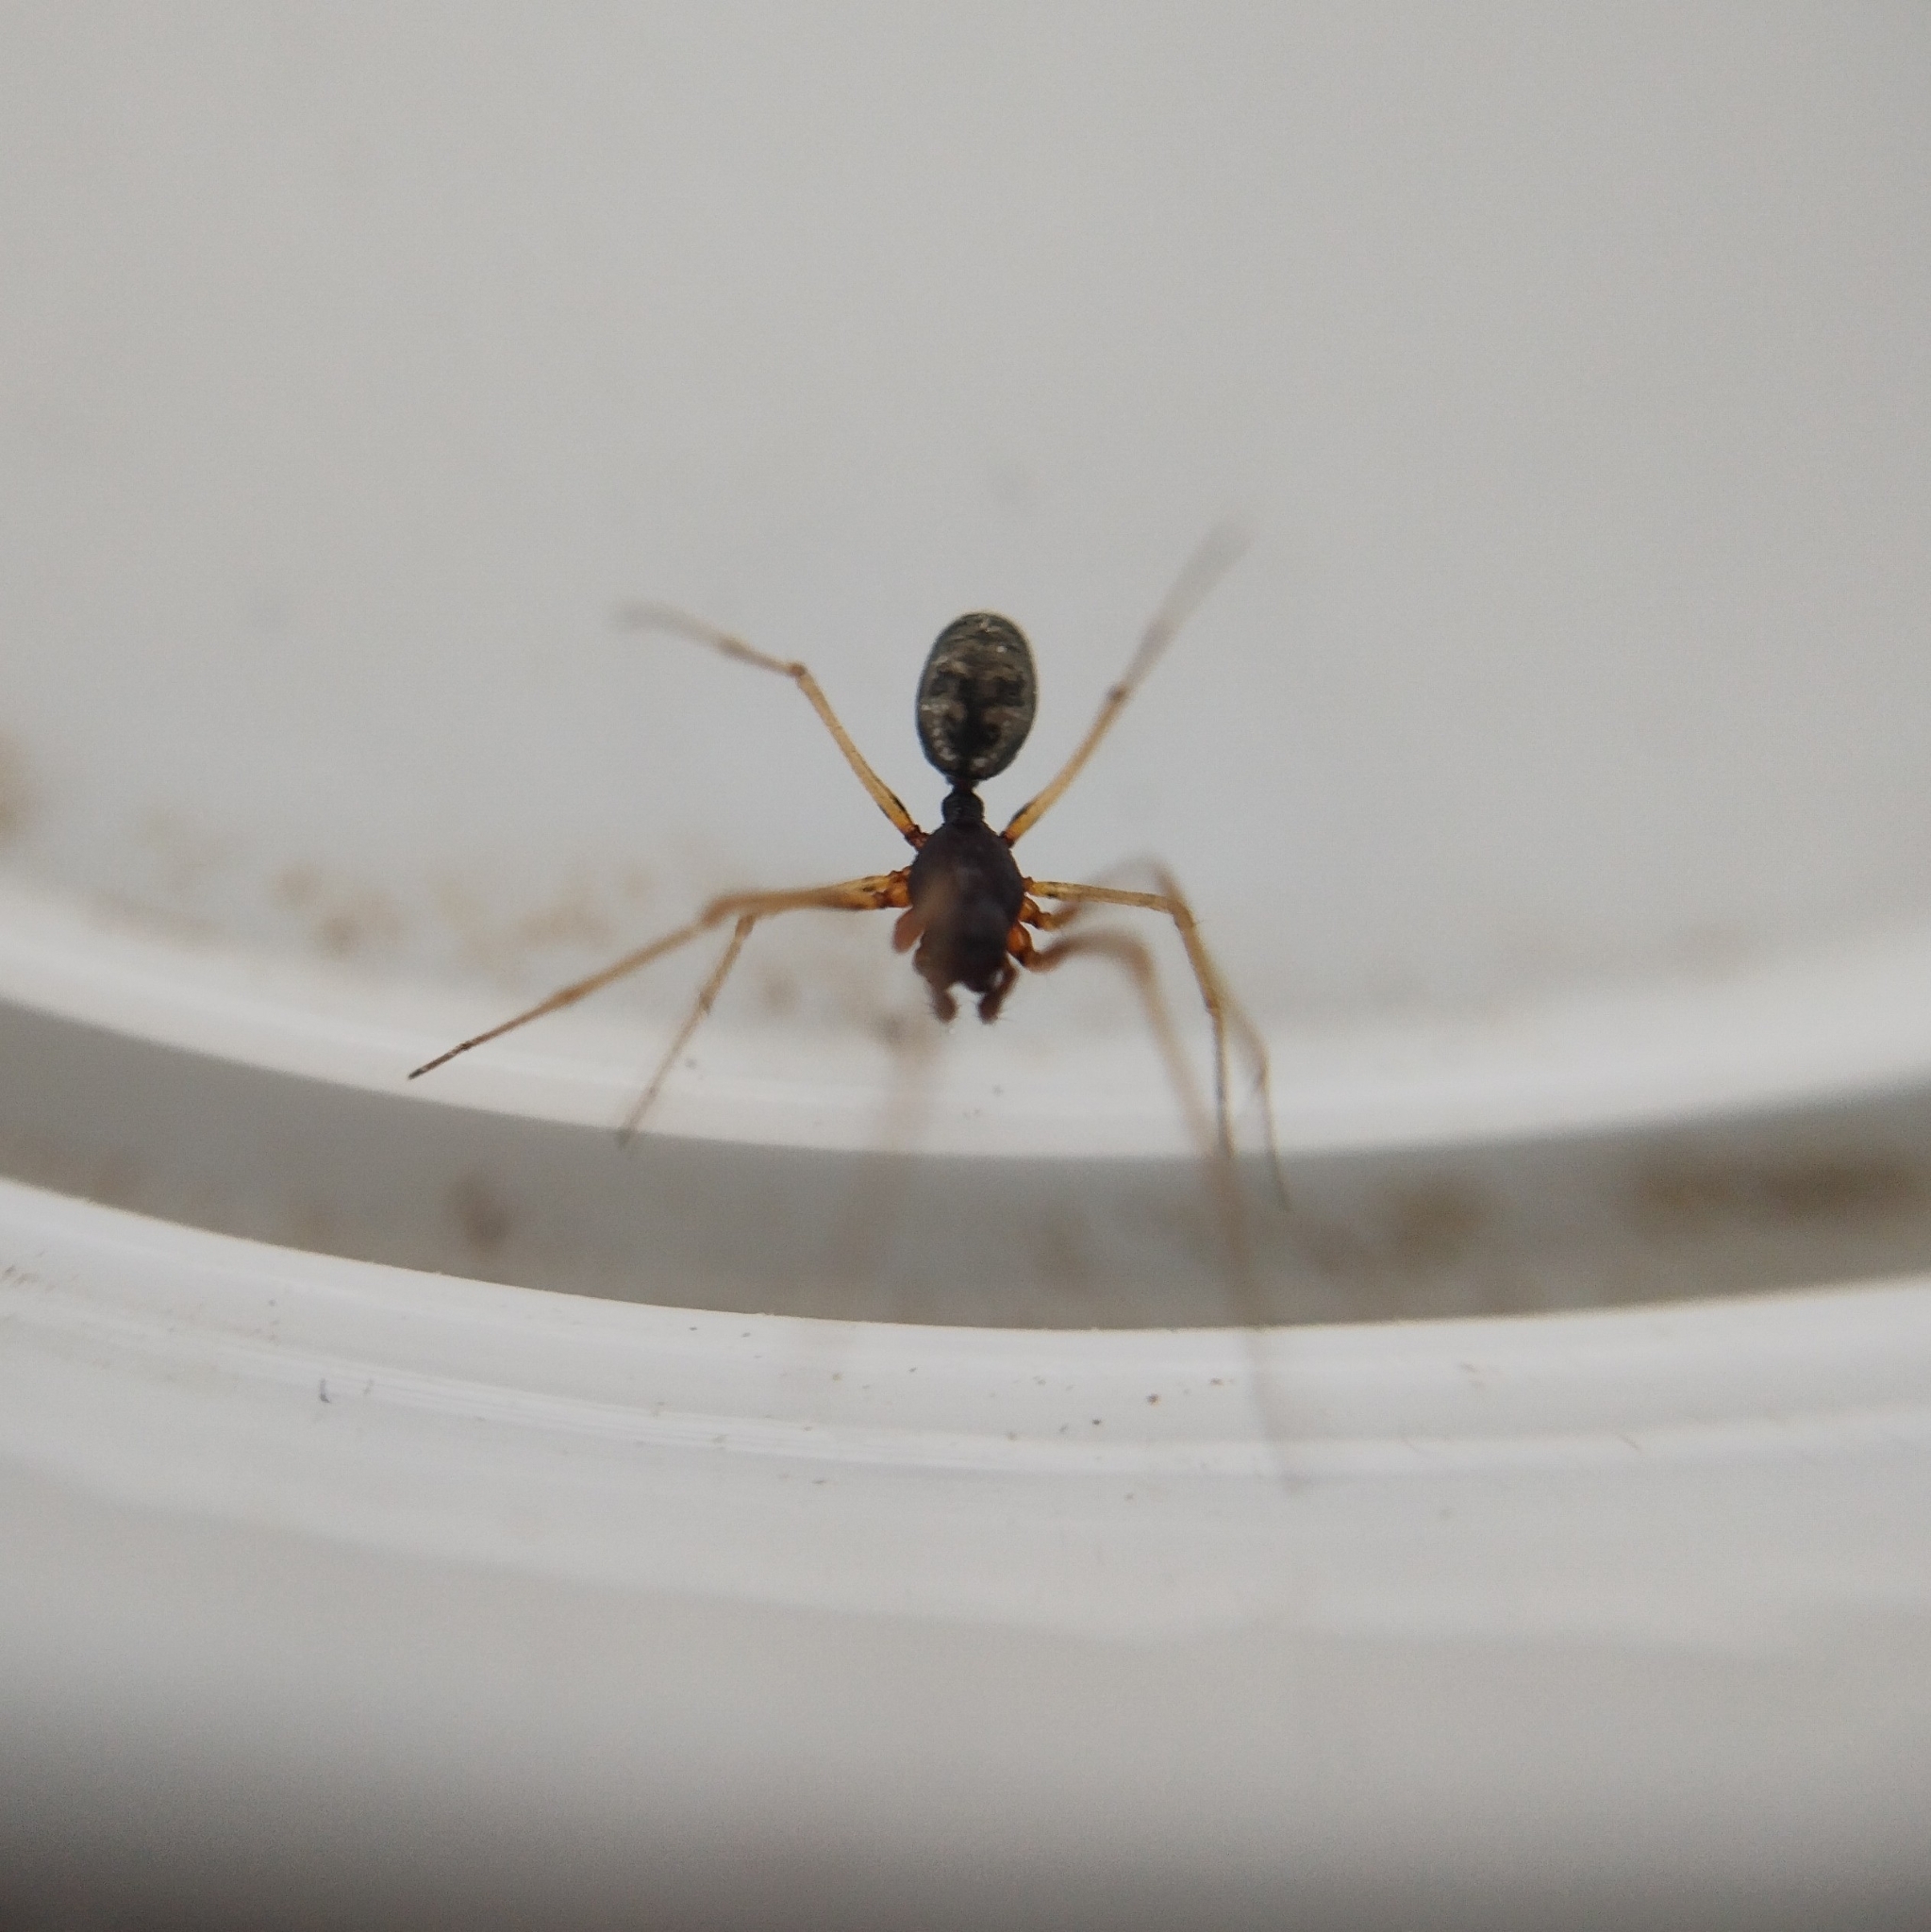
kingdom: Animalia
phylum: Arthropoda
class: Arachnida
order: Araneae
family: Linyphiidae
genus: Cresmatoneta
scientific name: Cresmatoneta mutinensis
